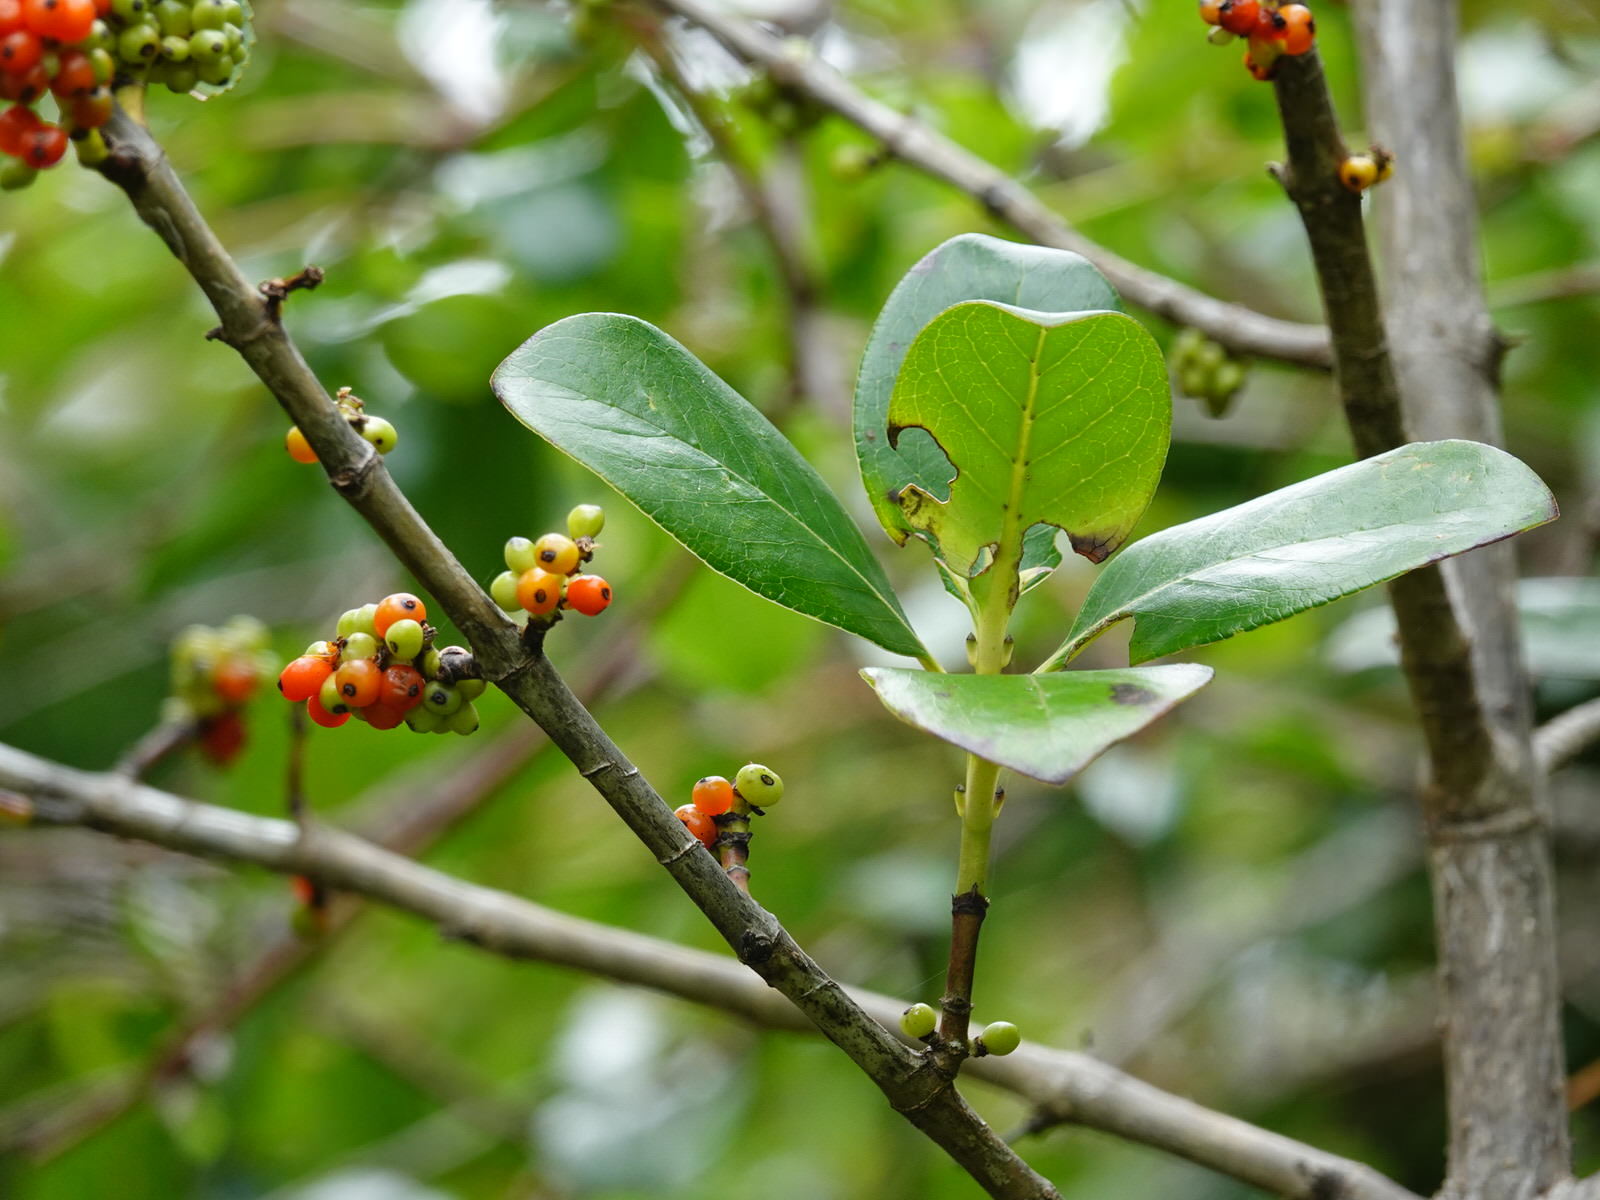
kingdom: Plantae
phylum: Tracheophyta
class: Magnoliopsida
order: Gentianales
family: Rubiaceae
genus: Coprosma
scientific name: Coprosma robusta
